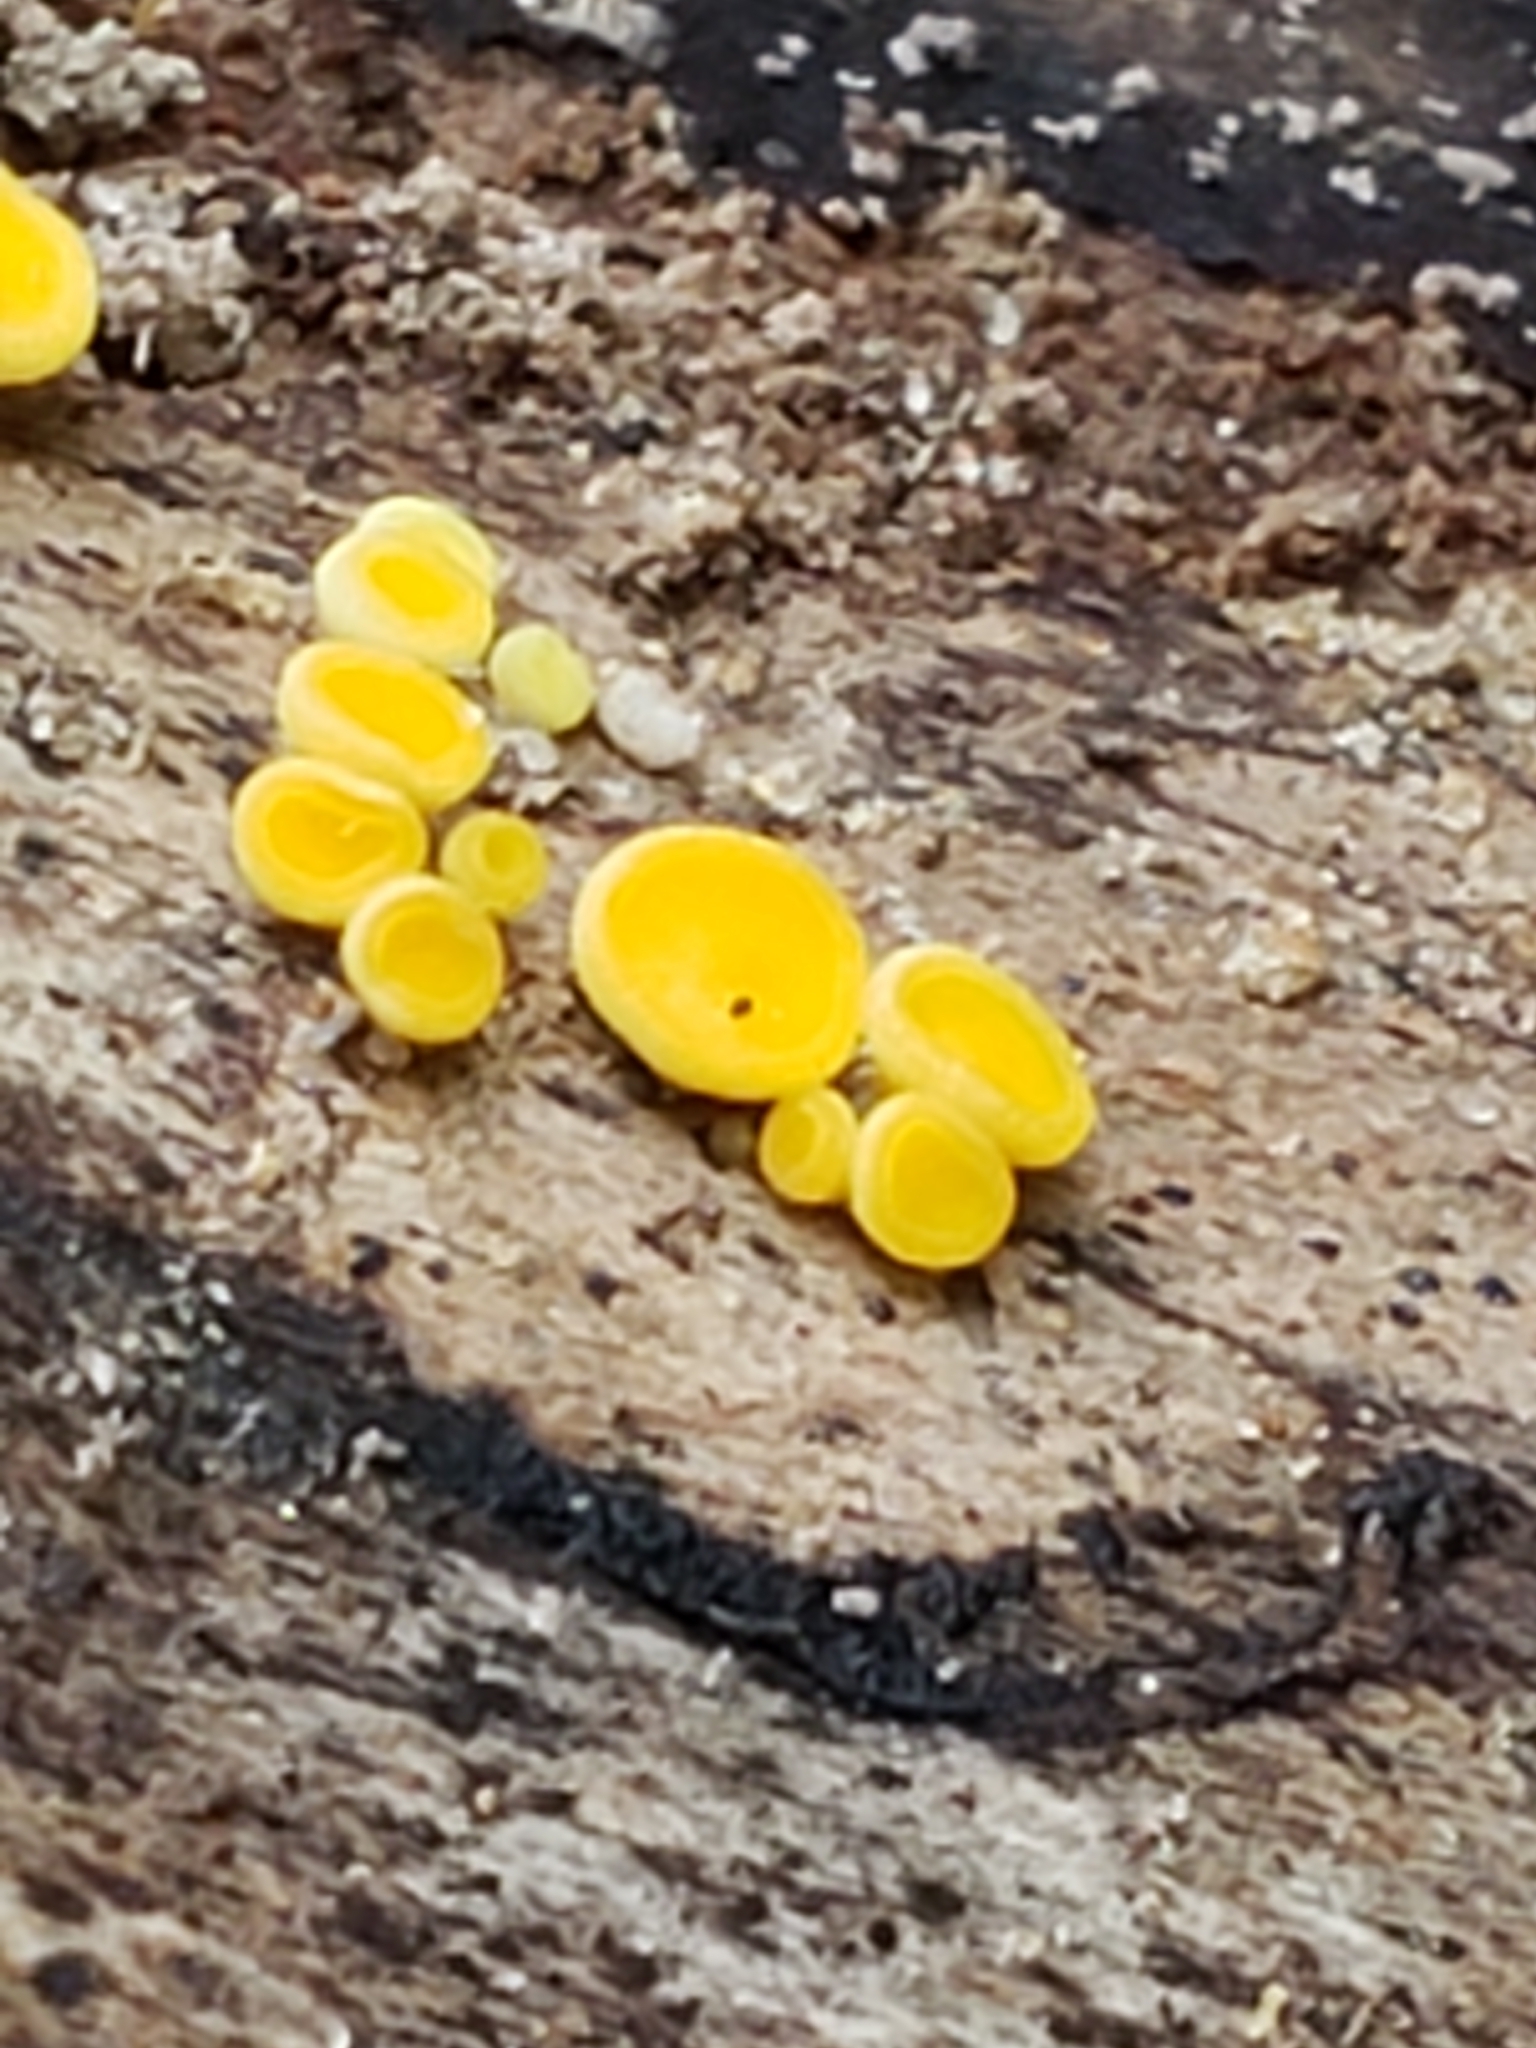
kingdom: Fungi
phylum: Ascomycota
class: Leotiomycetes
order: Helotiales
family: Pezizellaceae
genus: Calycina
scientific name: Calycina citrina
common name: Yellow fairy cups
